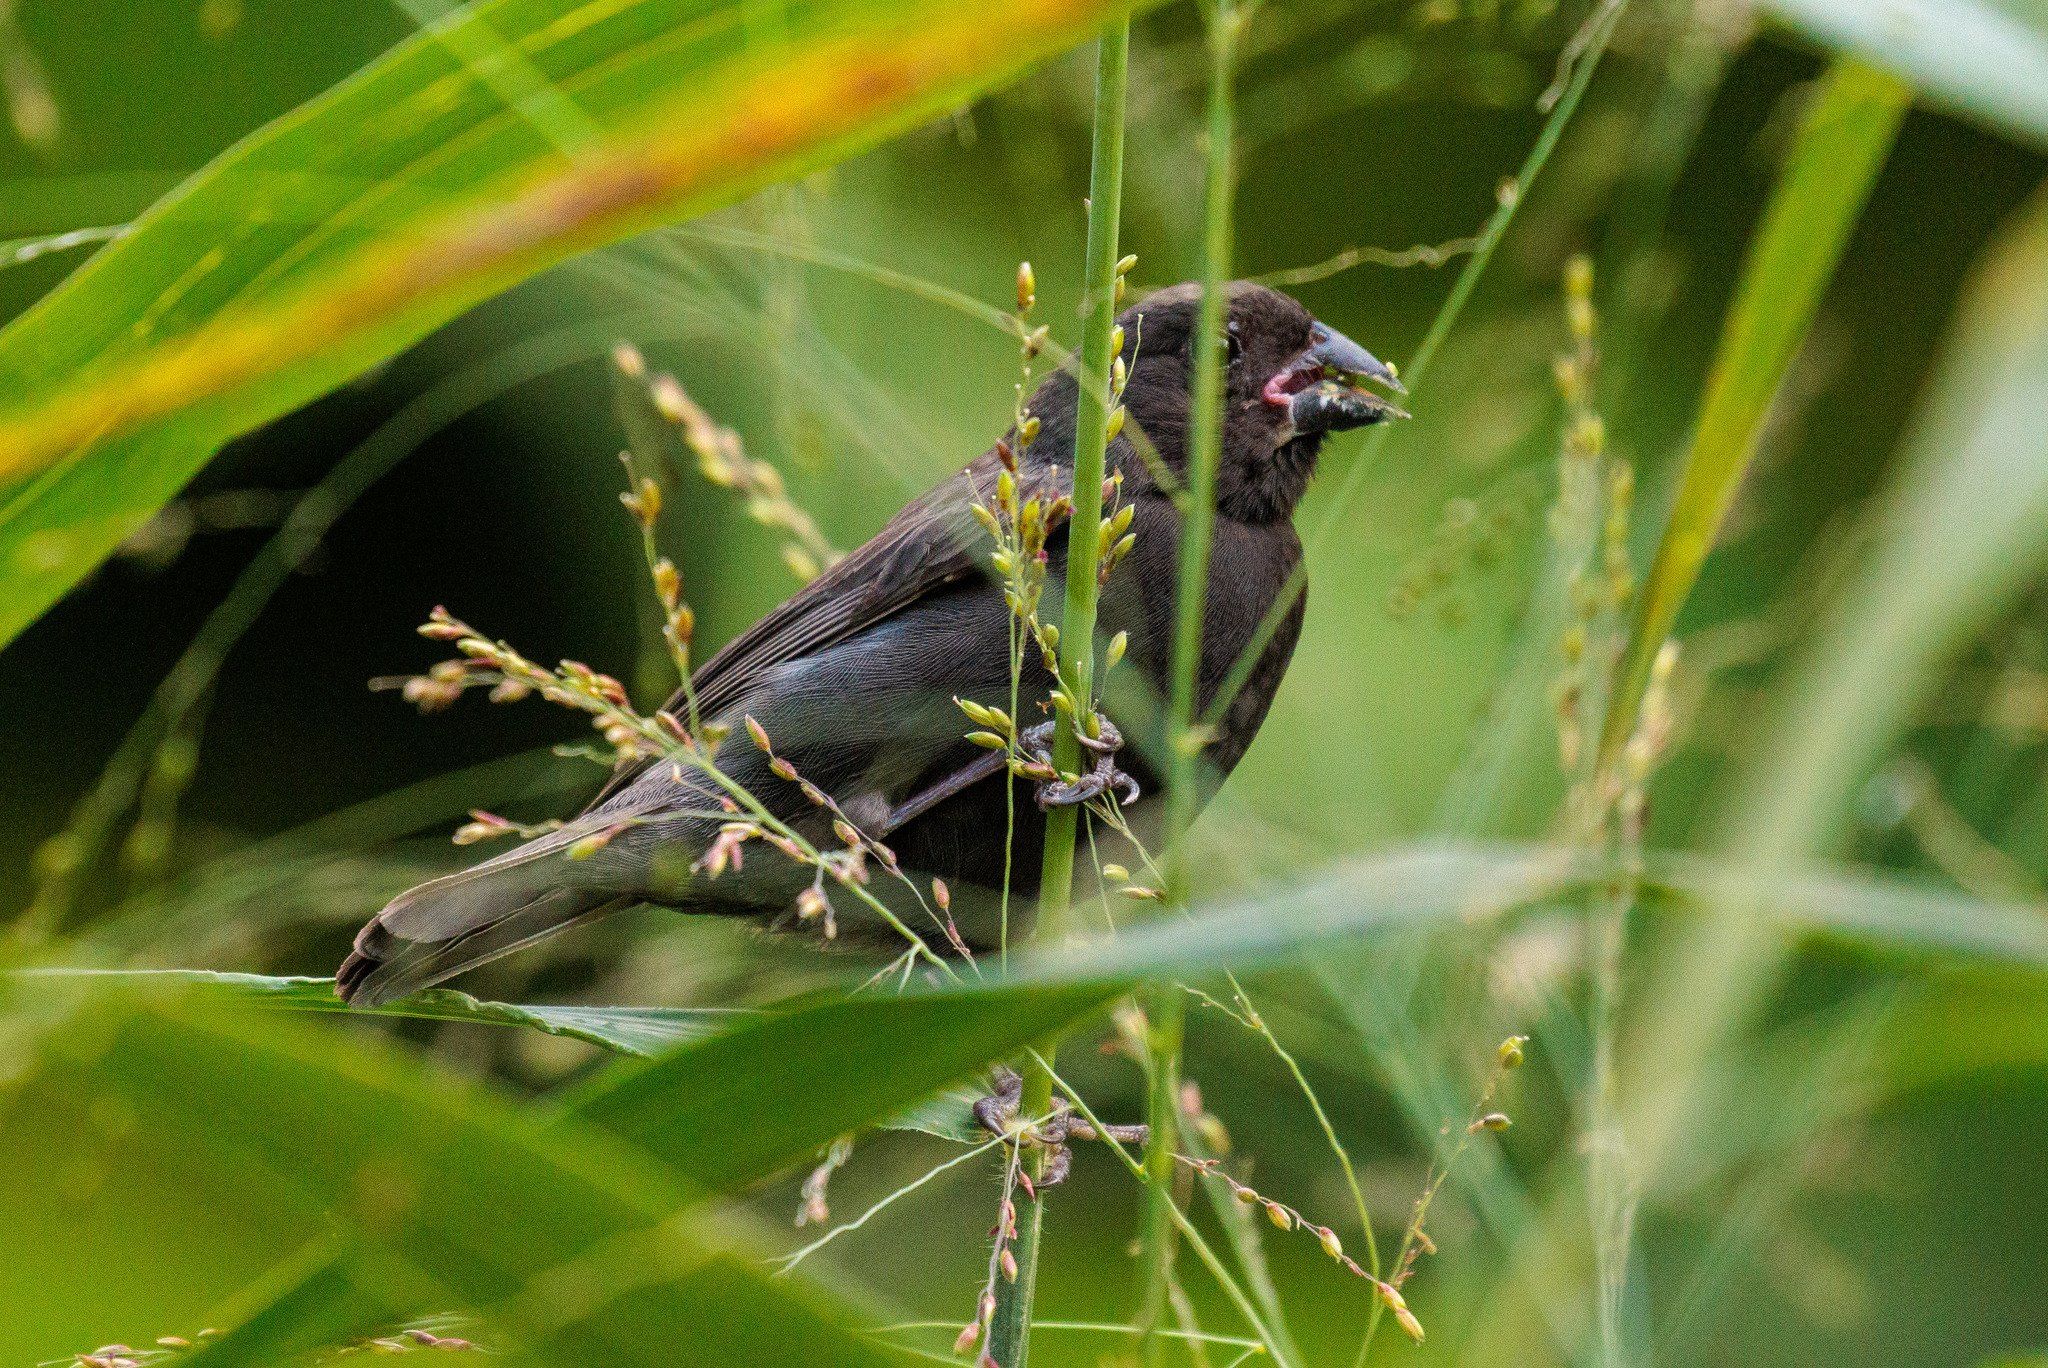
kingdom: Animalia
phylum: Chordata
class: Aves
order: Passeriformes
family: Thraupidae
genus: Asemospiza
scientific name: Asemospiza fuliginosa
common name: Sooty grassquit
